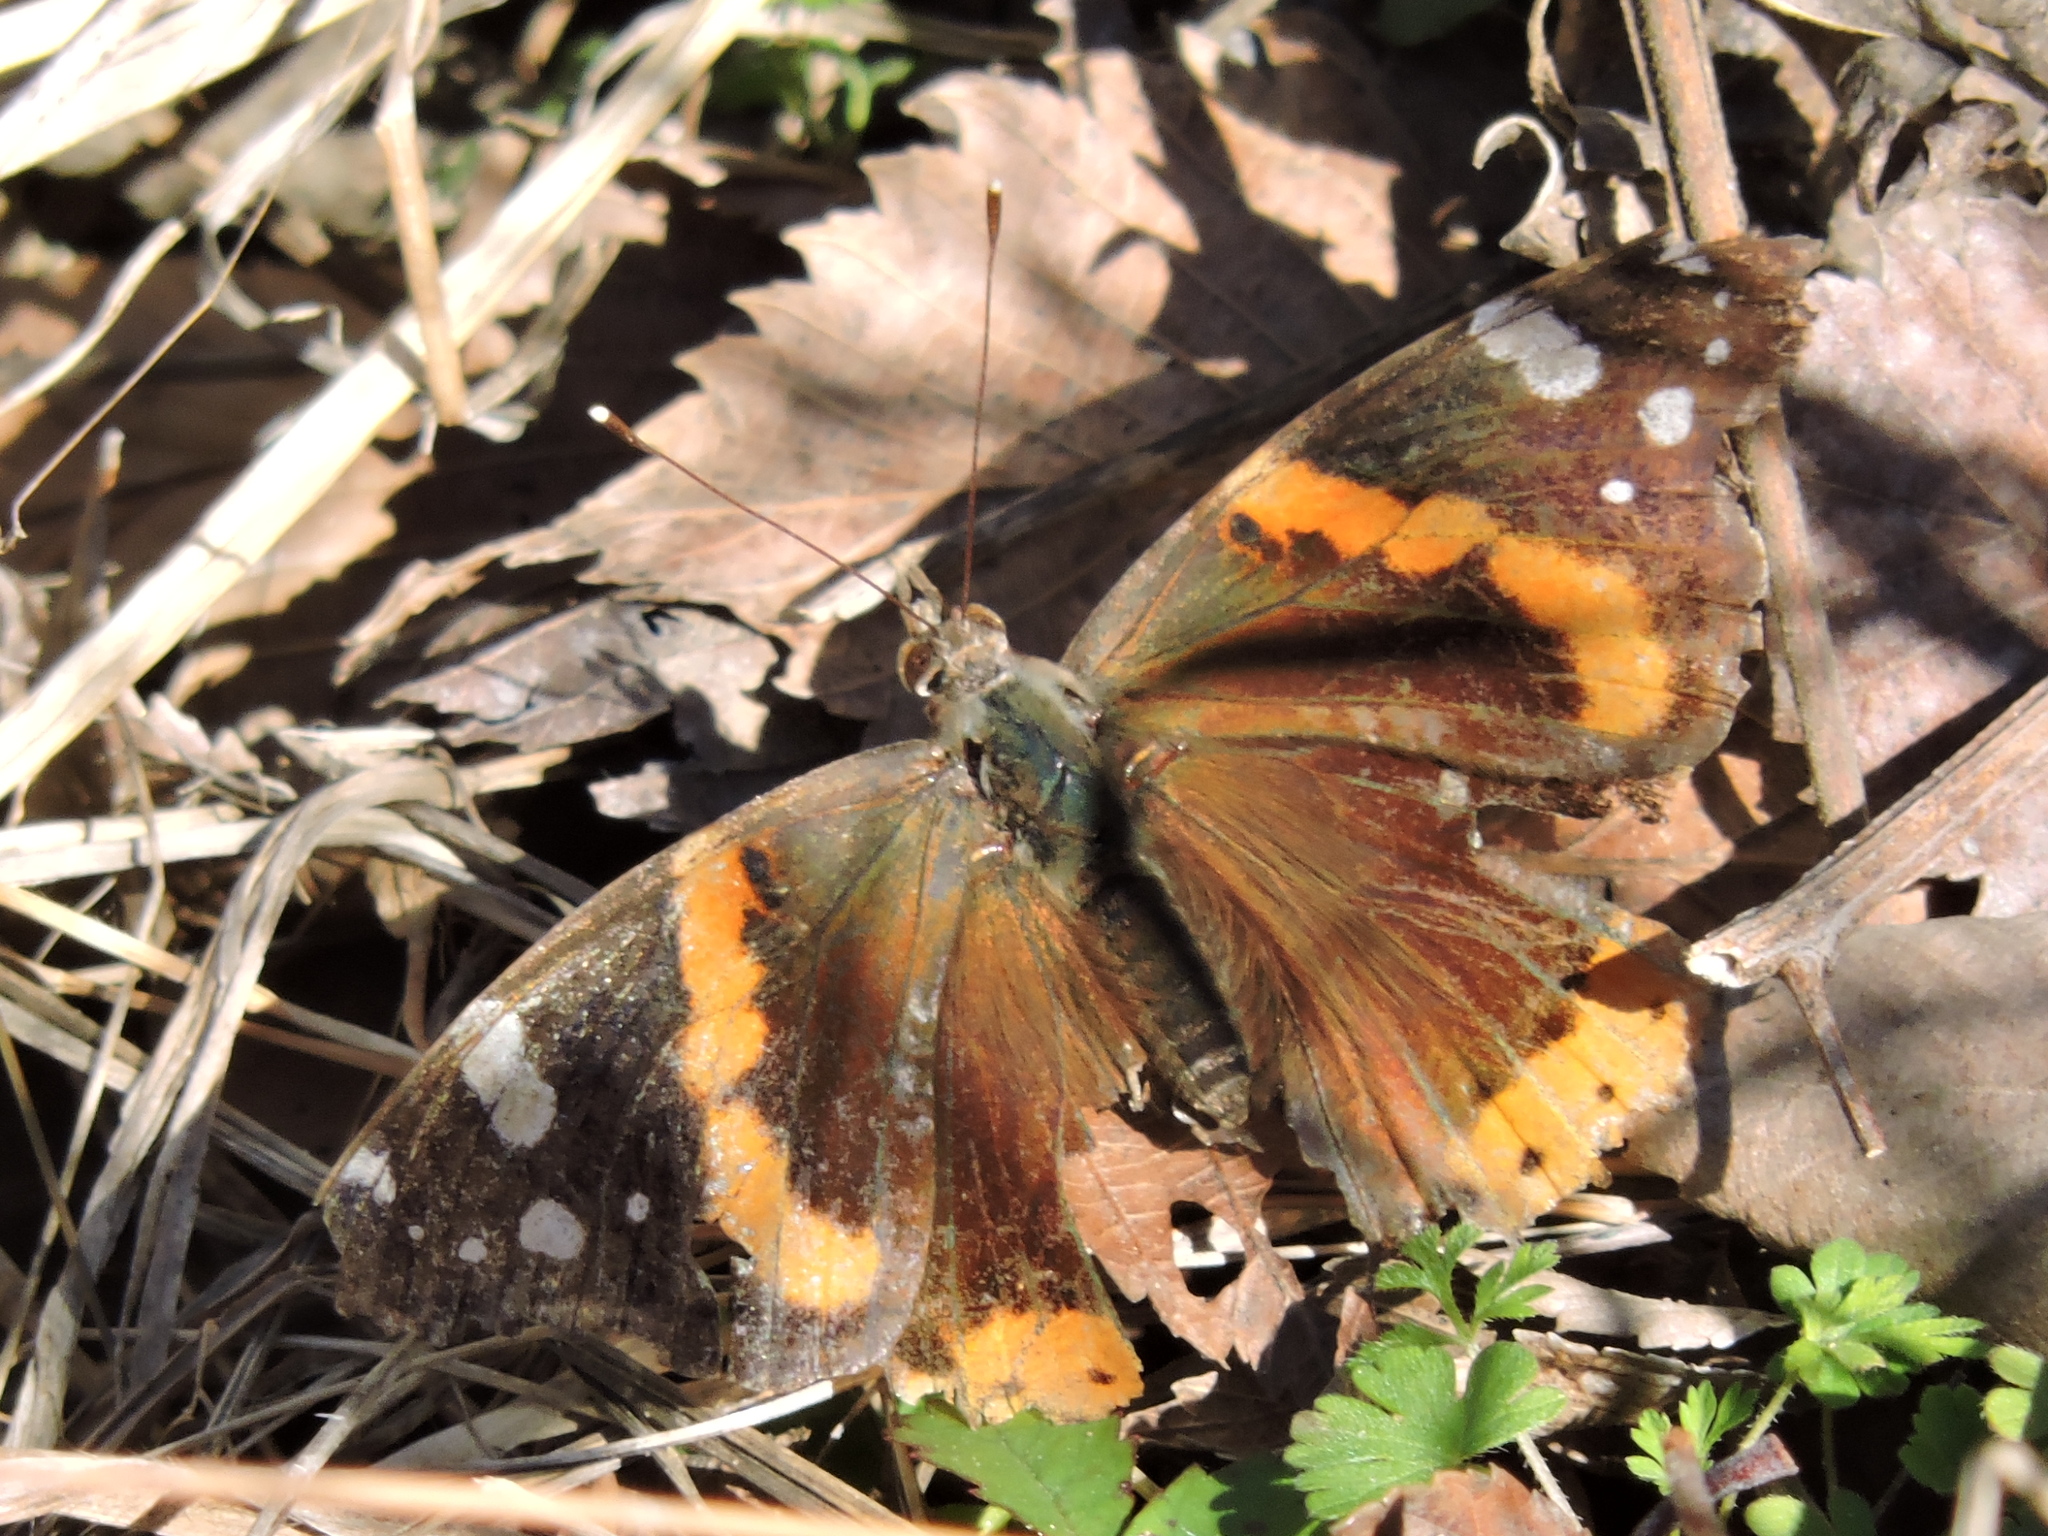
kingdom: Animalia
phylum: Arthropoda
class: Insecta
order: Lepidoptera
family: Nymphalidae
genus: Vanessa
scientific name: Vanessa atalanta
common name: Red admiral
